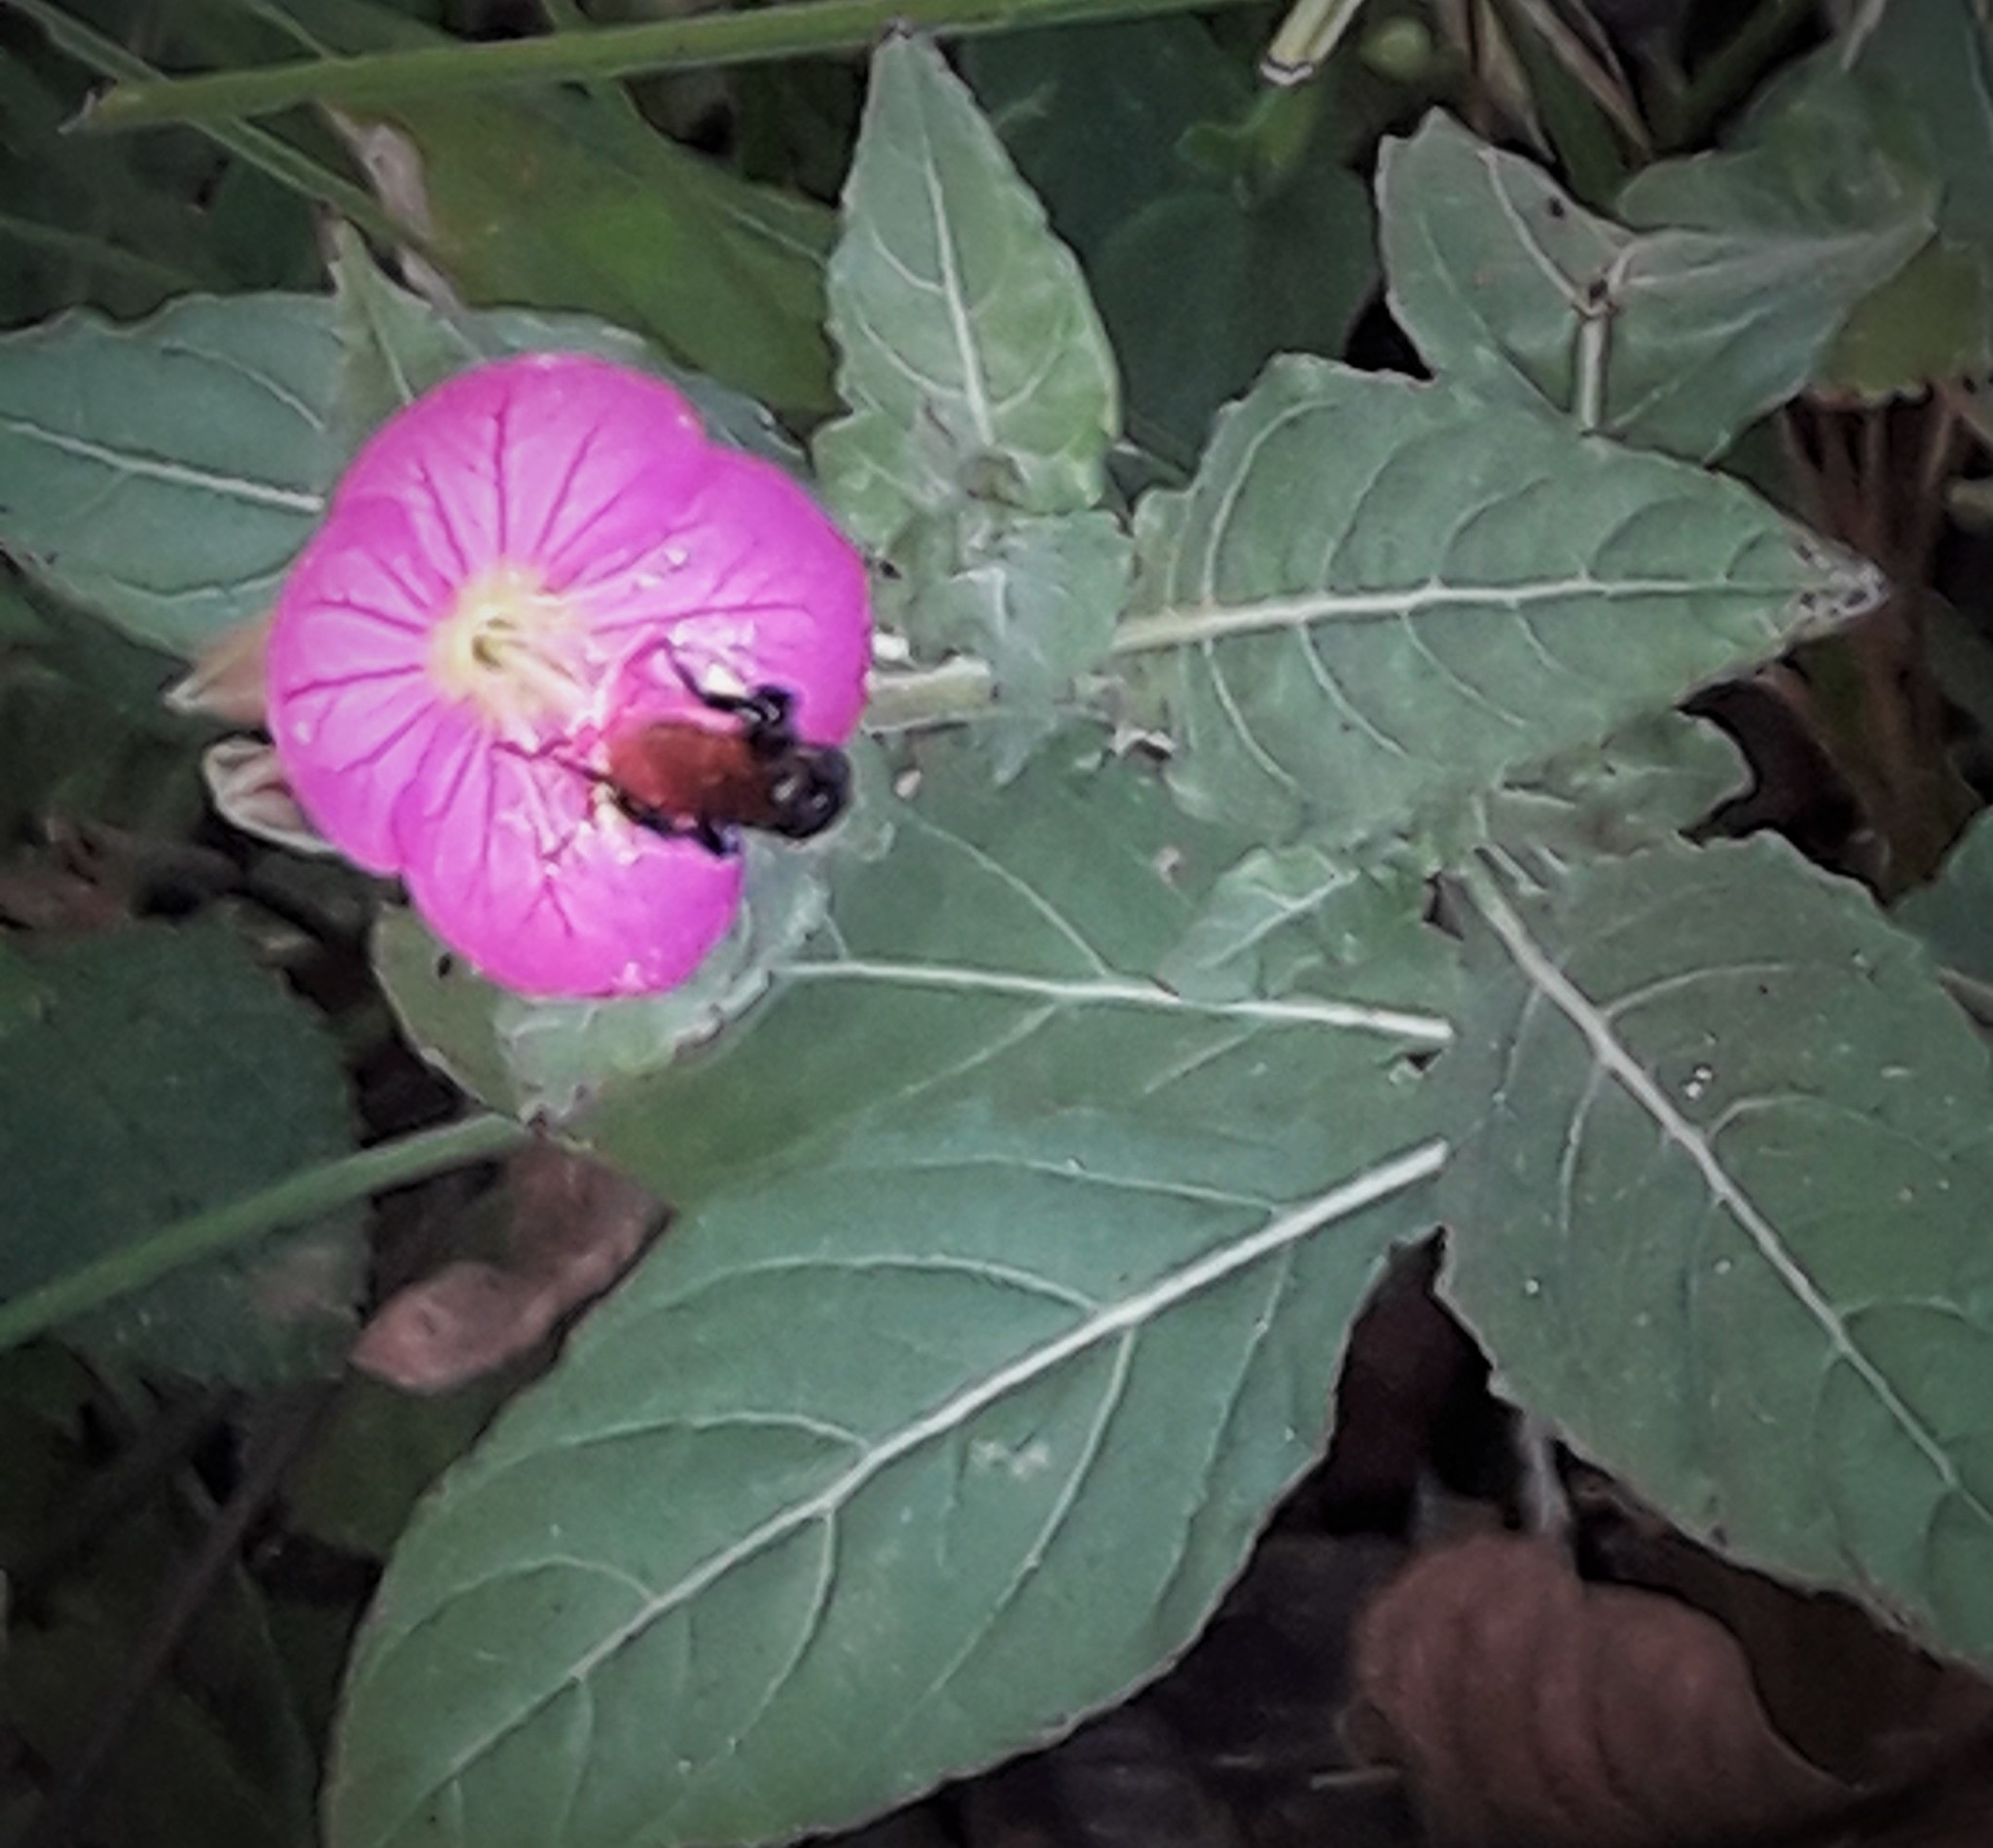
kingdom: Plantae
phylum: Tracheophyta
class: Magnoliopsida
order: Myrtales
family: Onagraceae
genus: Oenothera
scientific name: Oenothera rosea
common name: Rosy evening-primrose
